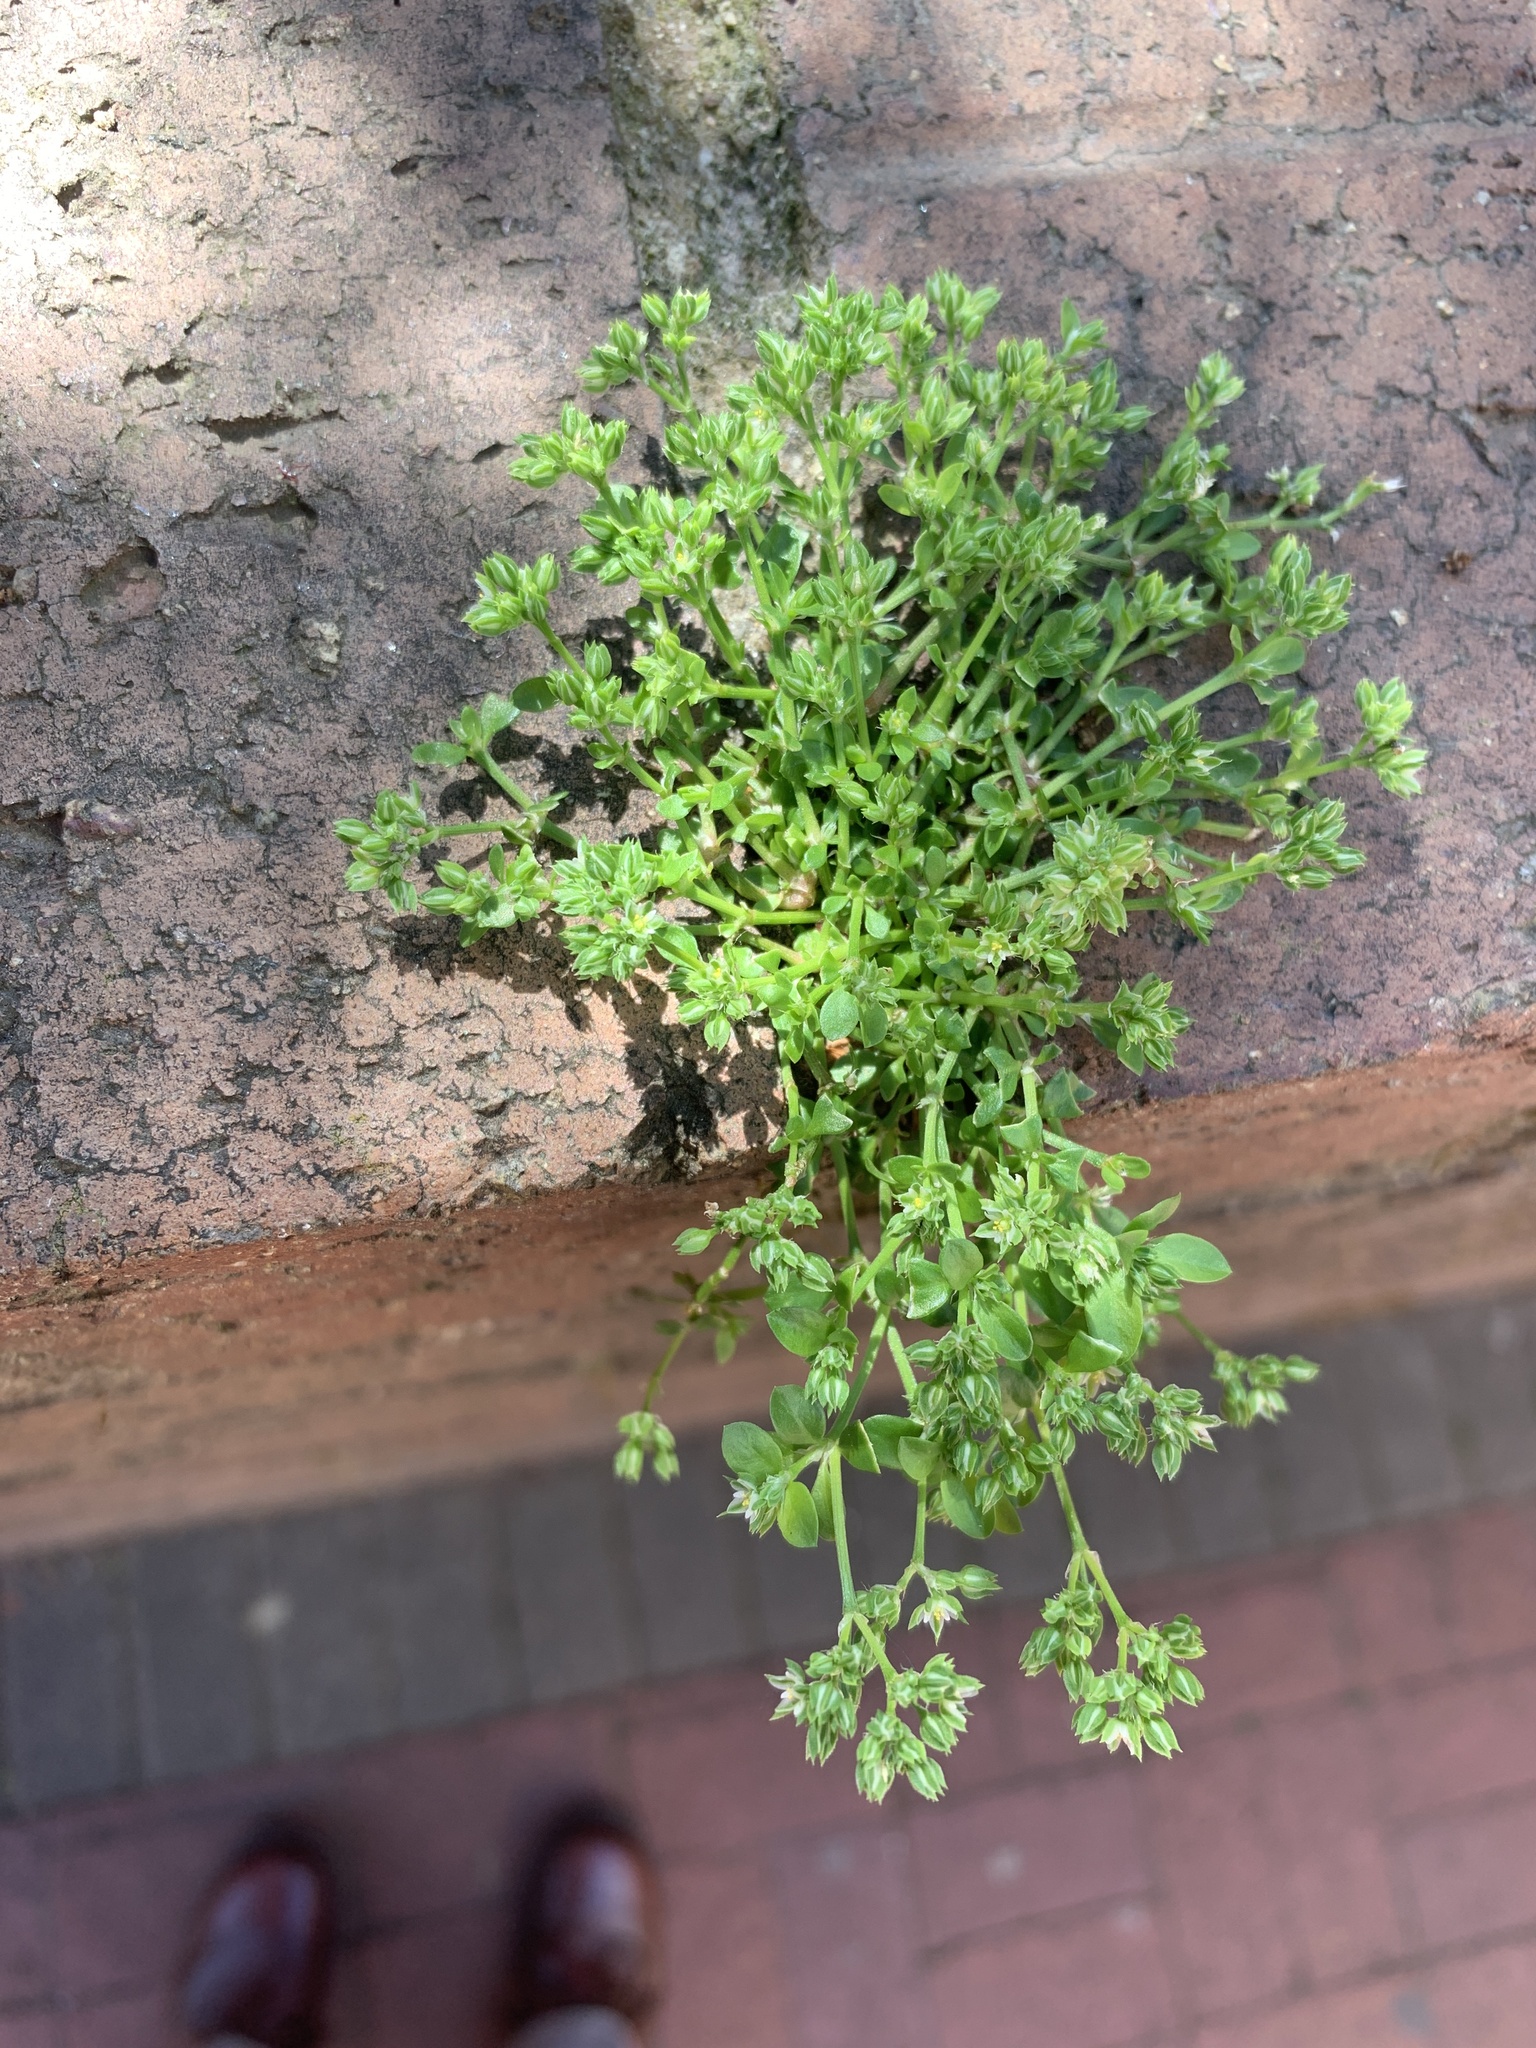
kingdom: Plantae
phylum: Tracheophyta
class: Magnoliopsida
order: Caryophyllales
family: Caryophyllaceae
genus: Polycarpon
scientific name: Polycarpon tetraphyllum
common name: Four-leaved all-seed
